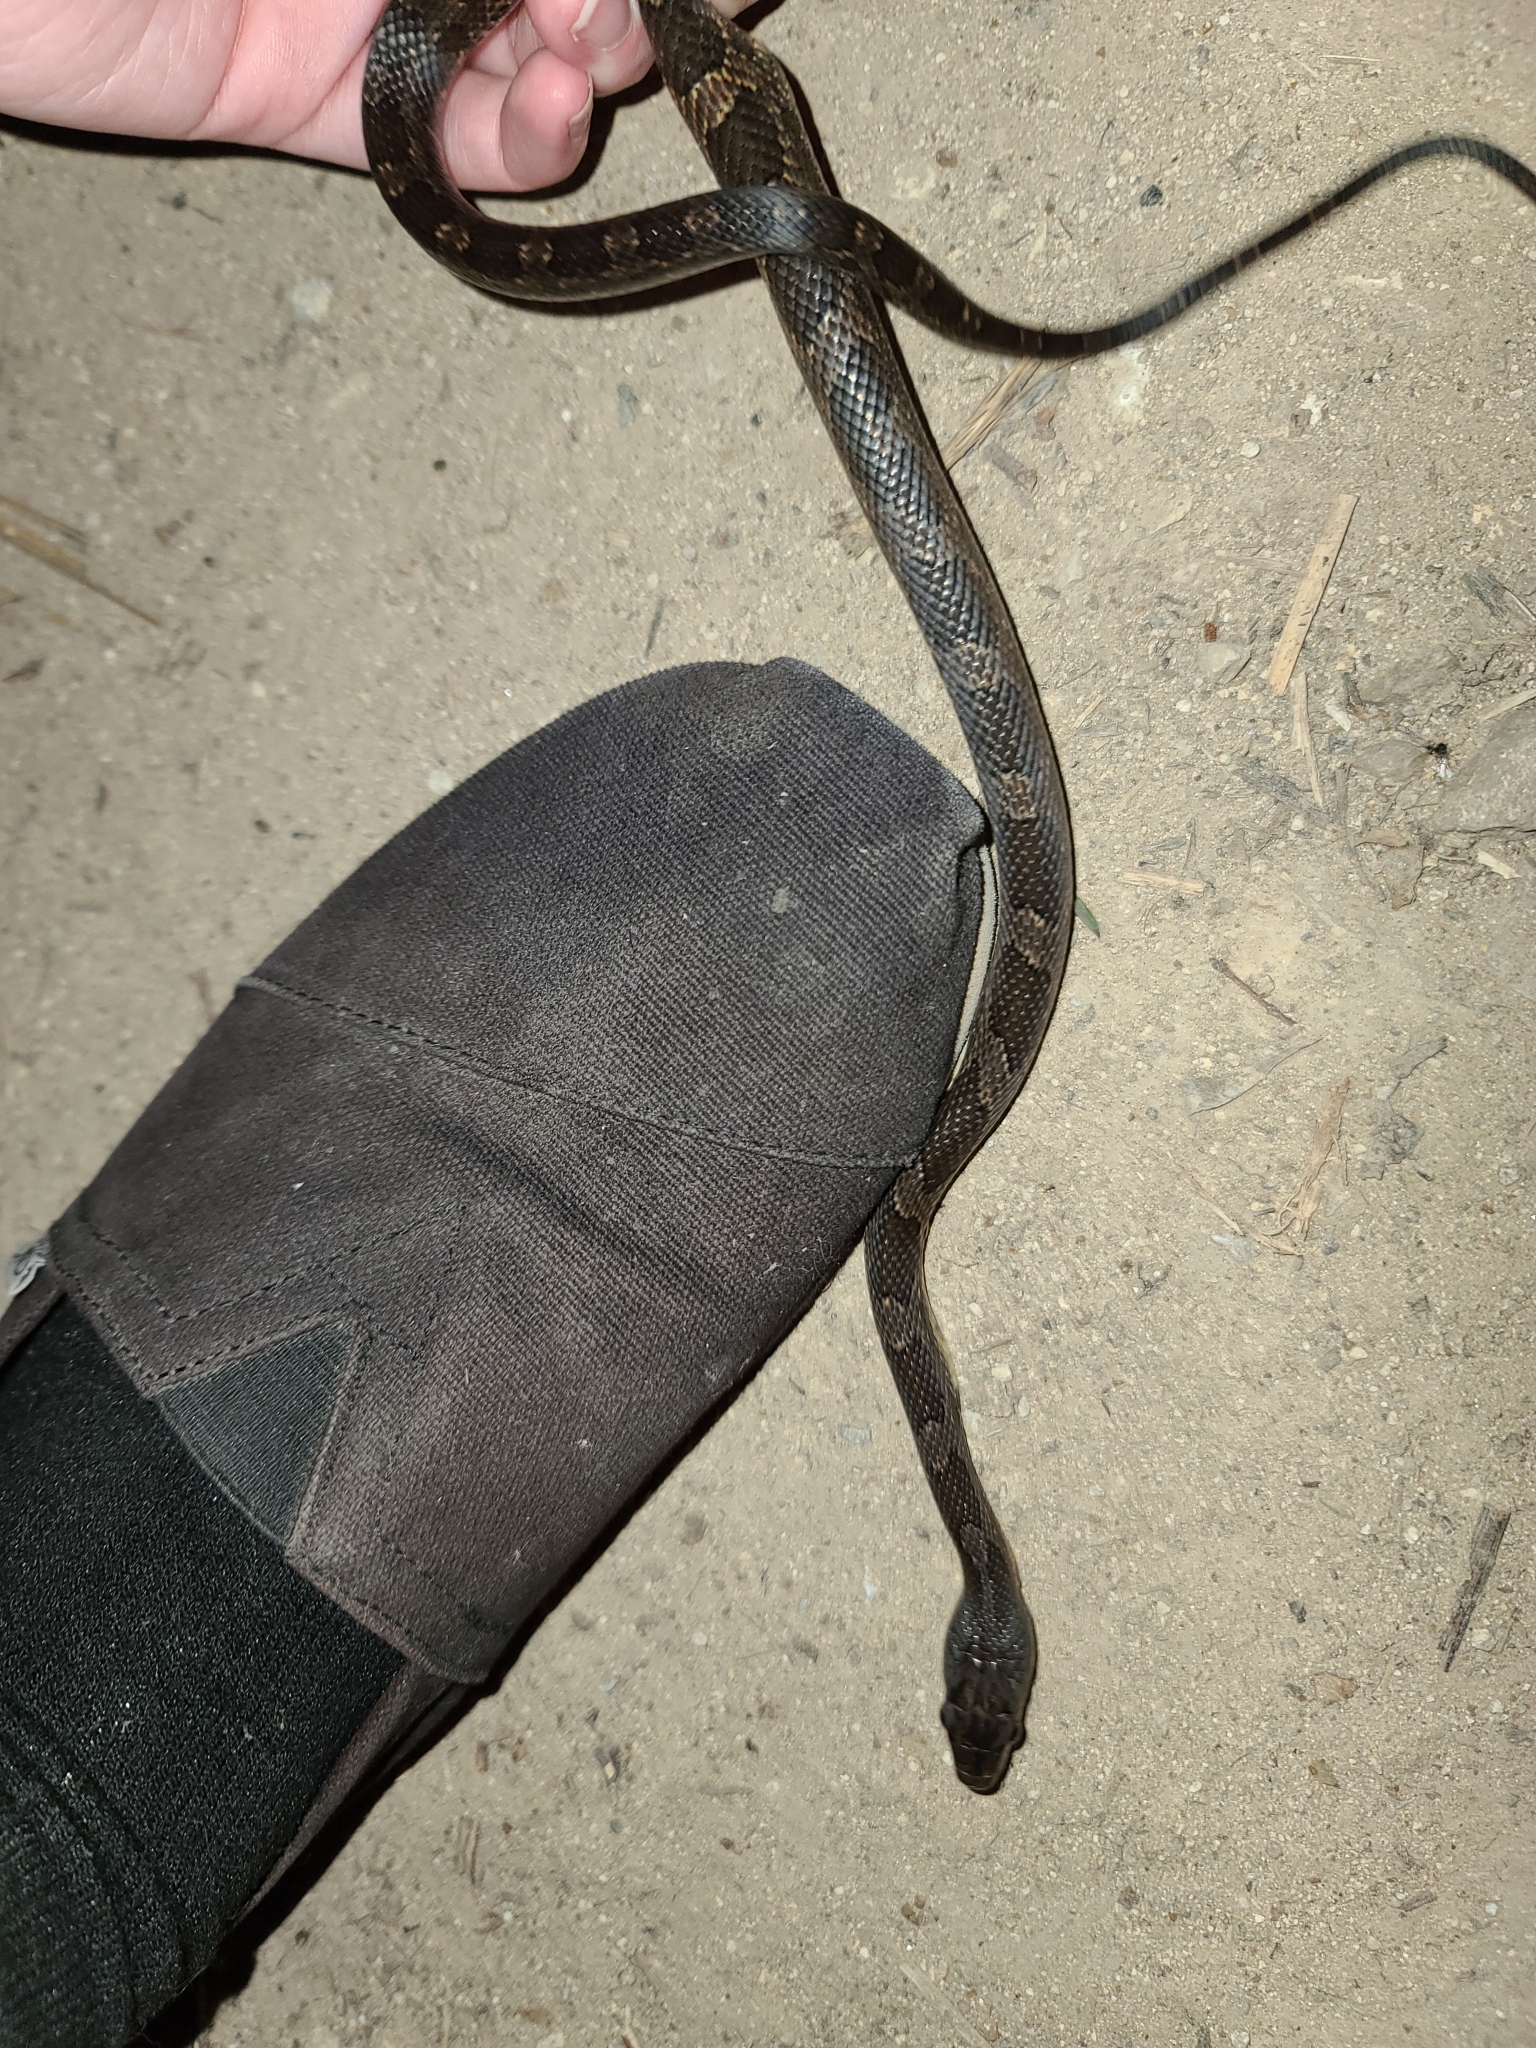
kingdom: Animalia
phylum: Chordata
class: Squamata
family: Colubridae
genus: Pantherophis
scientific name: Pantherophis obsoletus
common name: Black rat snake
